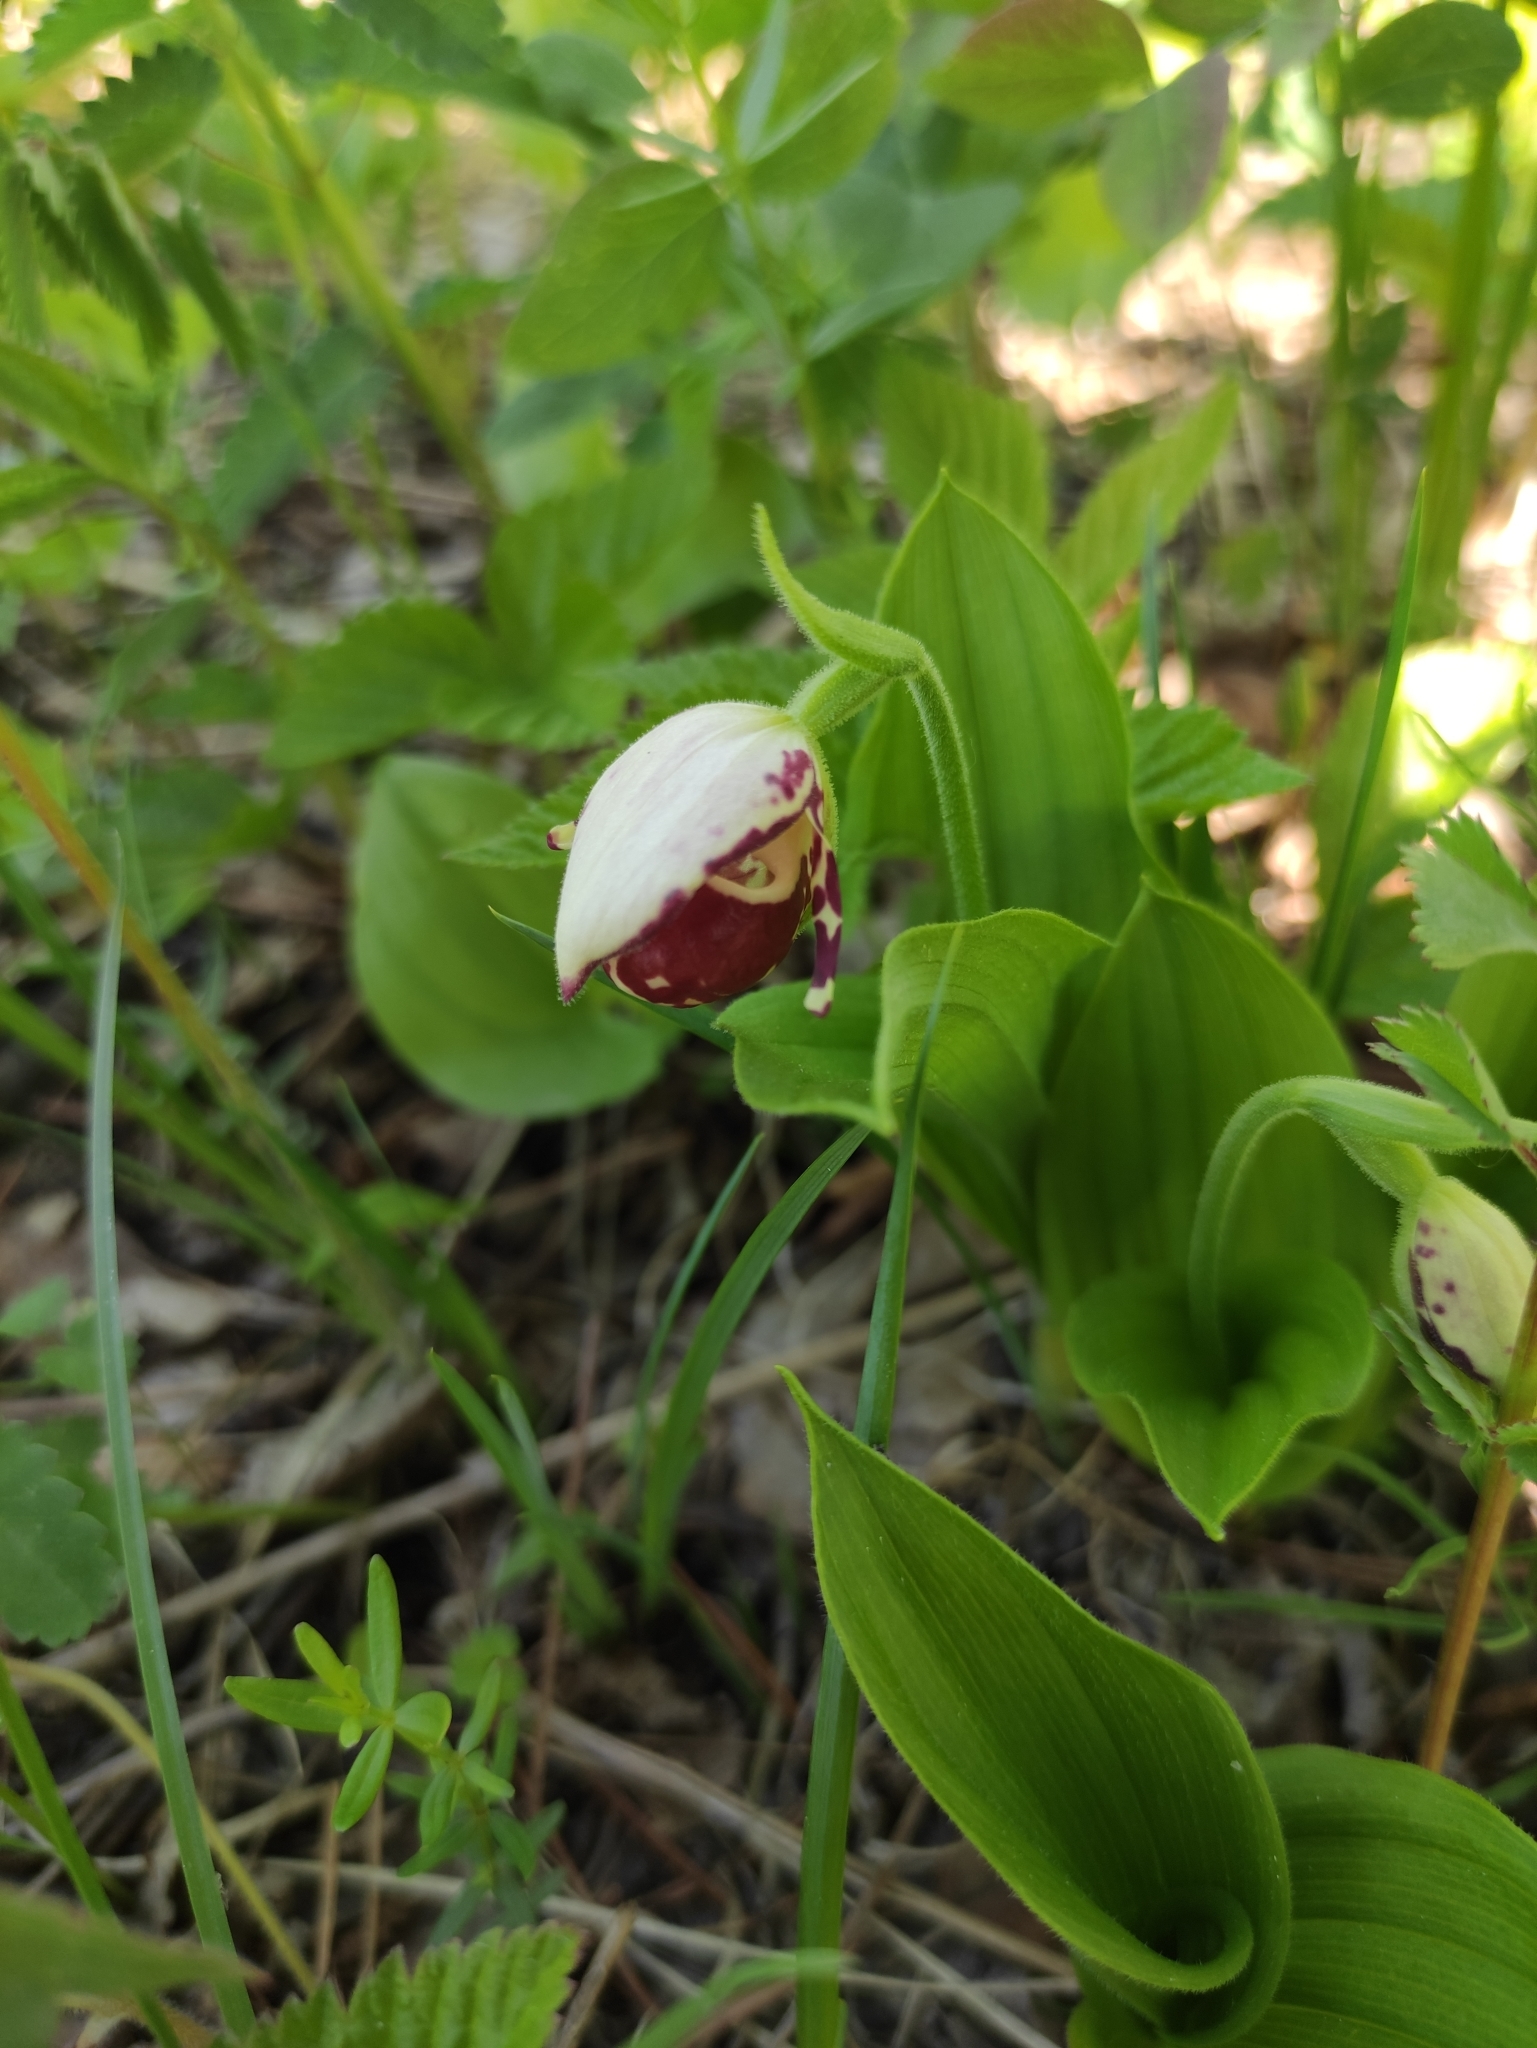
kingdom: Plantae
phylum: Tracheophyta
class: Liliopsida
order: Asparagales
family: Orchidaceae
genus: Cypripedium
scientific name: Cypripedium guttatum
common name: Pink lady slipper
